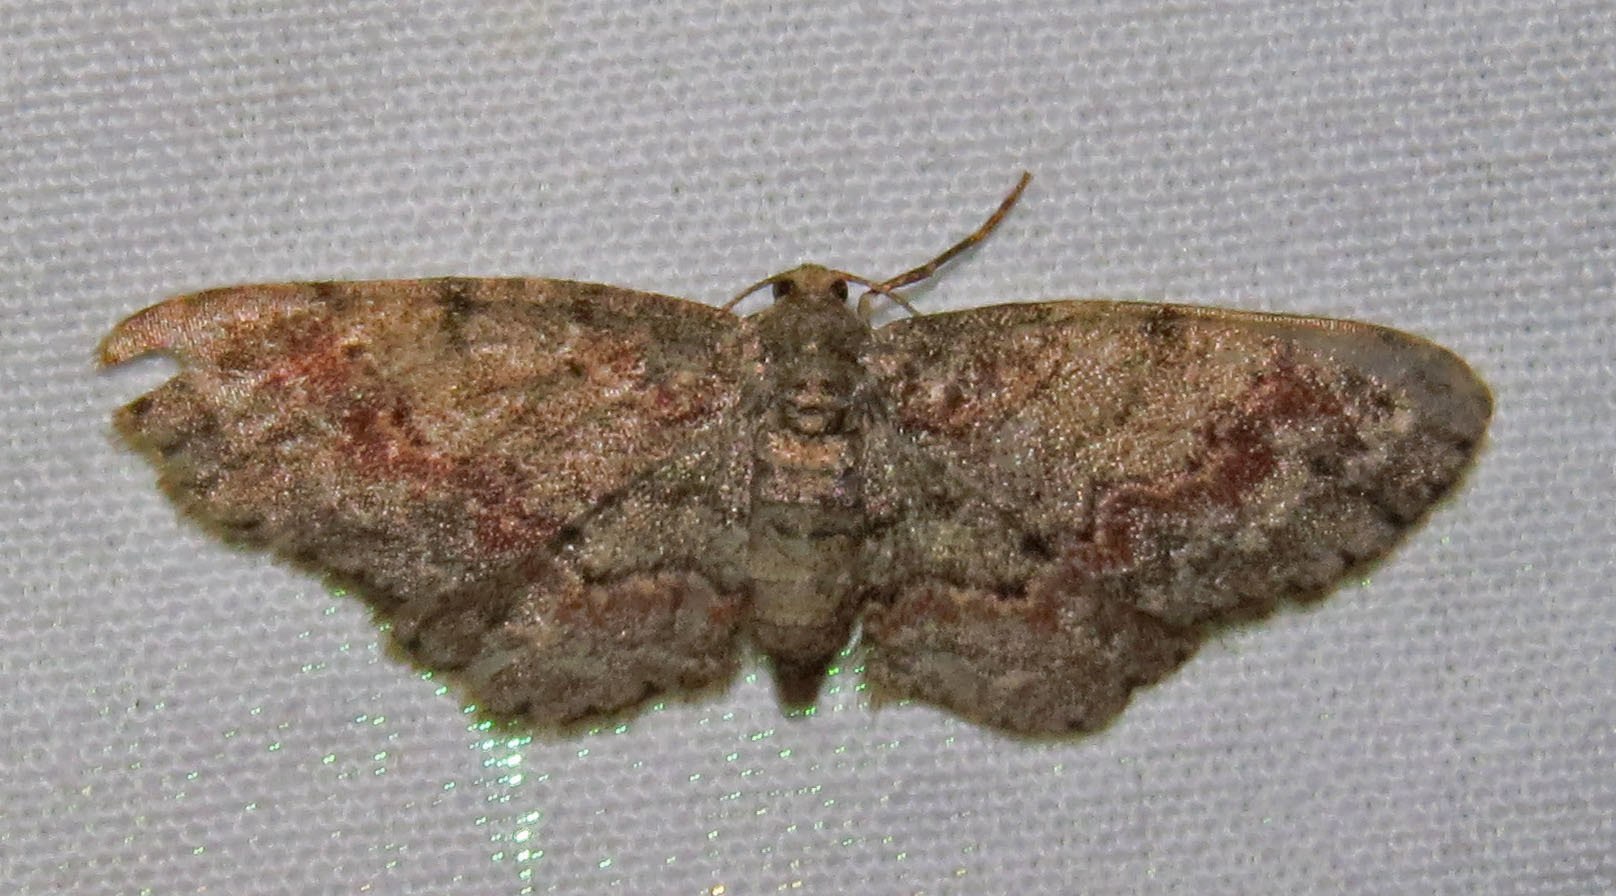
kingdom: Animalia
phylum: Arthropoda
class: Insecta
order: Lepidoptera
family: Geometridae
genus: Glenoides
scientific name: Glenoides texanaria
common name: Texas gray
